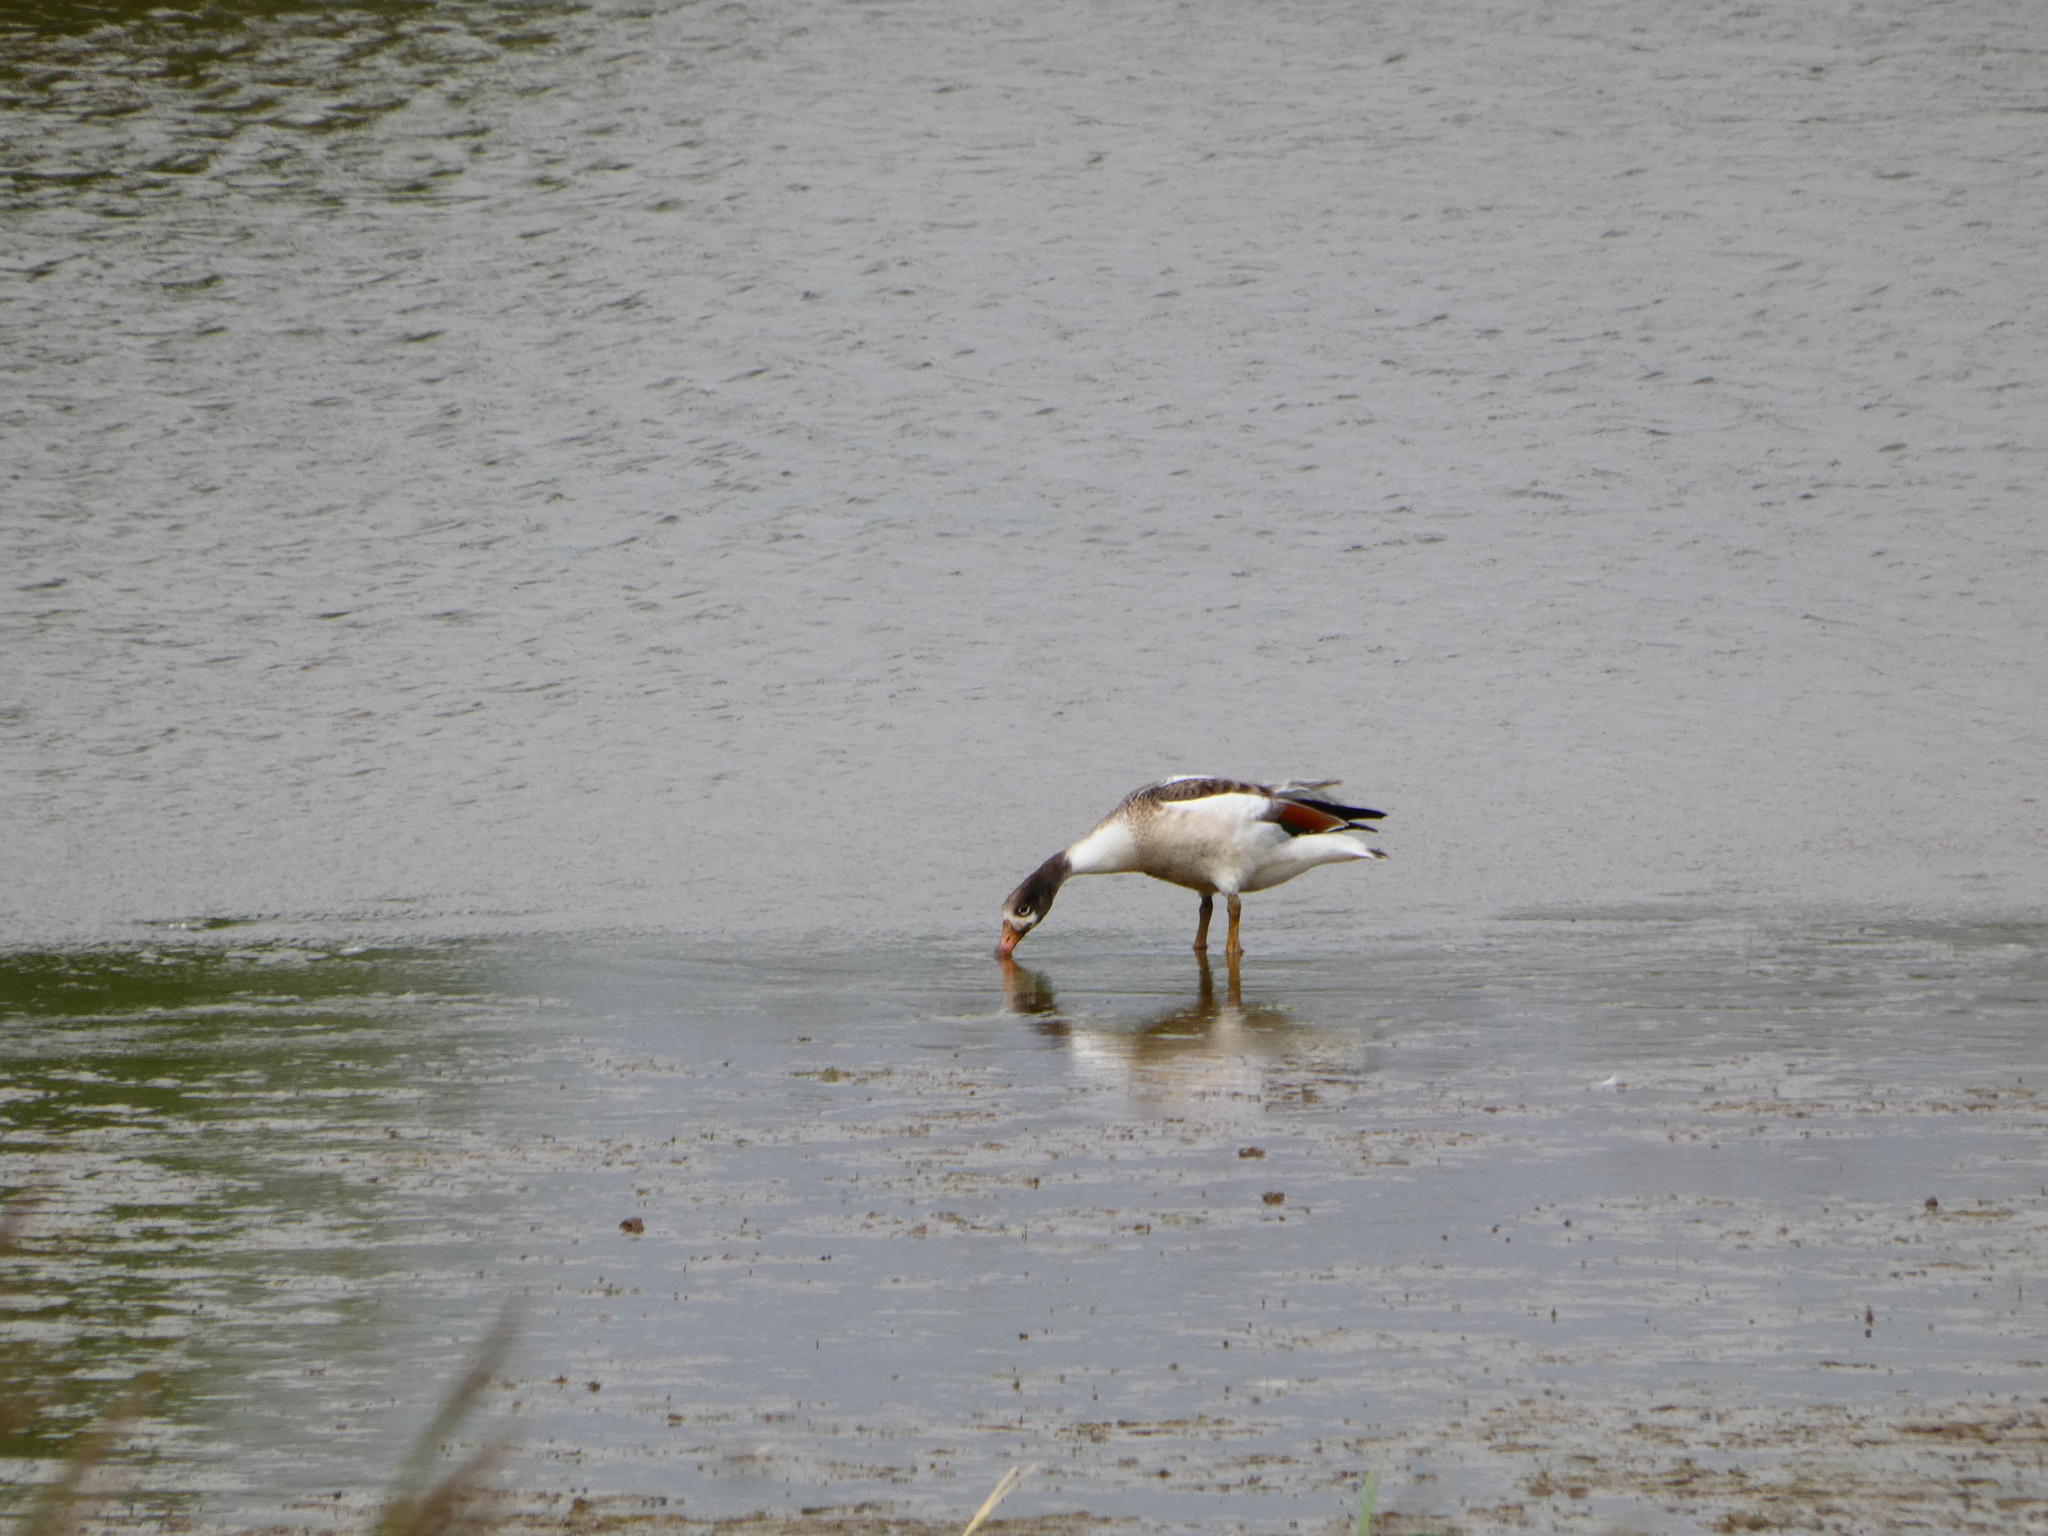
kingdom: Animalia
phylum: Chordata
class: Aves
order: Anseriformes
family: Anatidae
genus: Tadorna
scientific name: Tadorna tadorna
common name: Common shelduck
